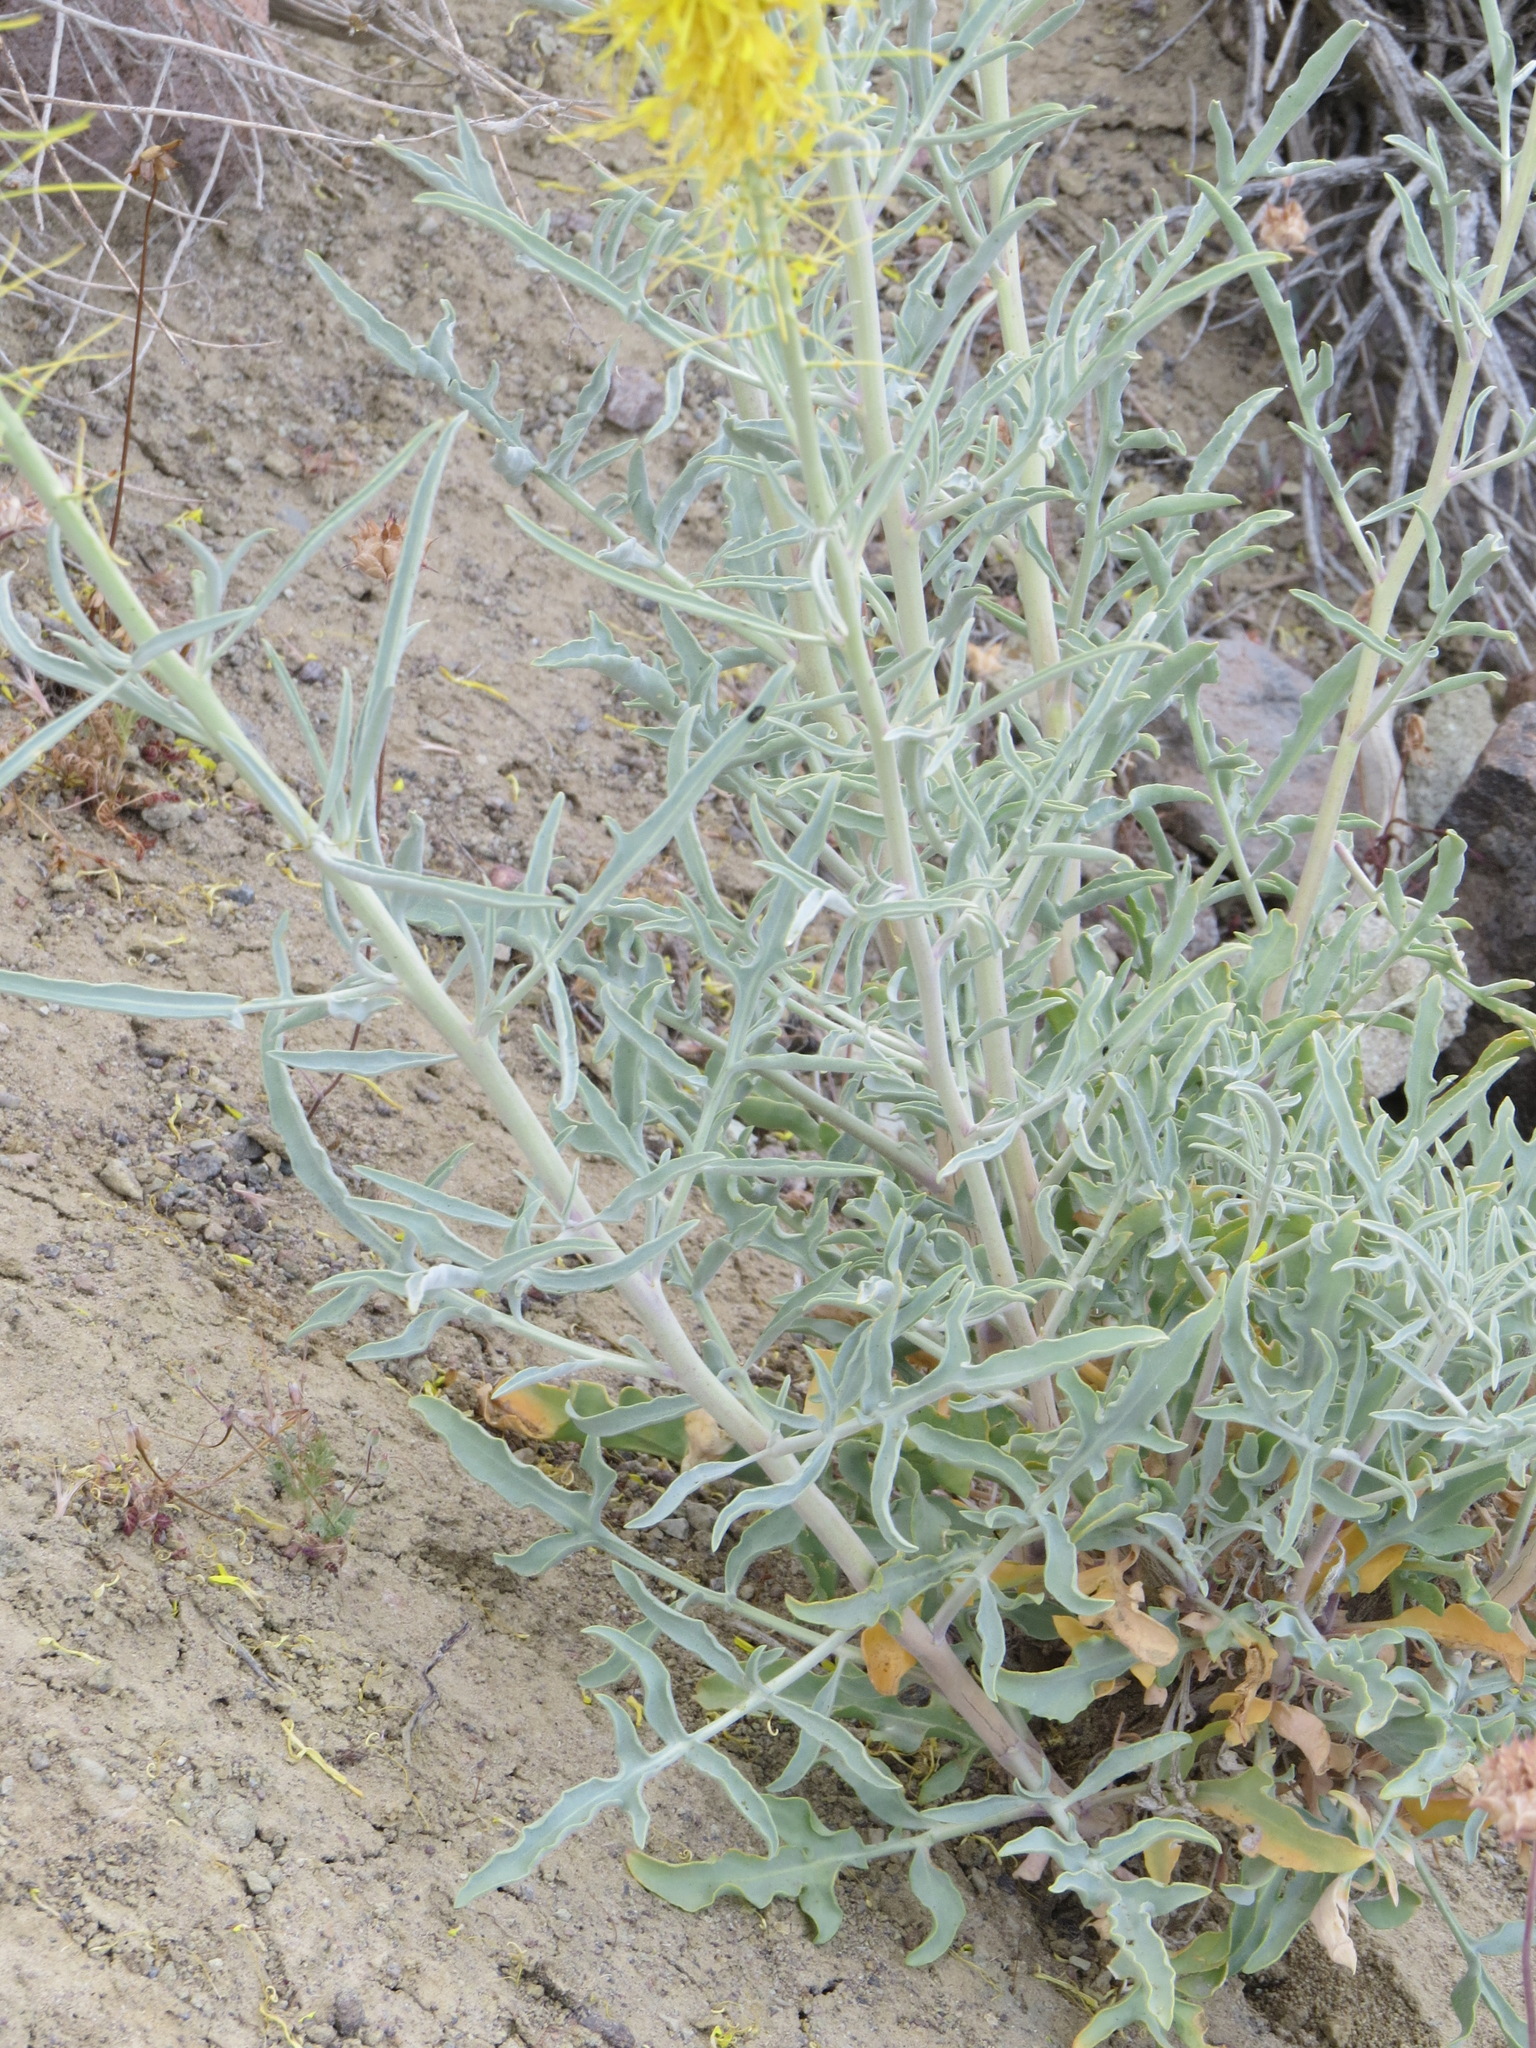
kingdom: Plantae
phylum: Tracheophyta
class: Magnoliopsida
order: Brassicales
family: Brassicaceae
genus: Stanleya
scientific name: Stanleya pinnata
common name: Prince's-plume
